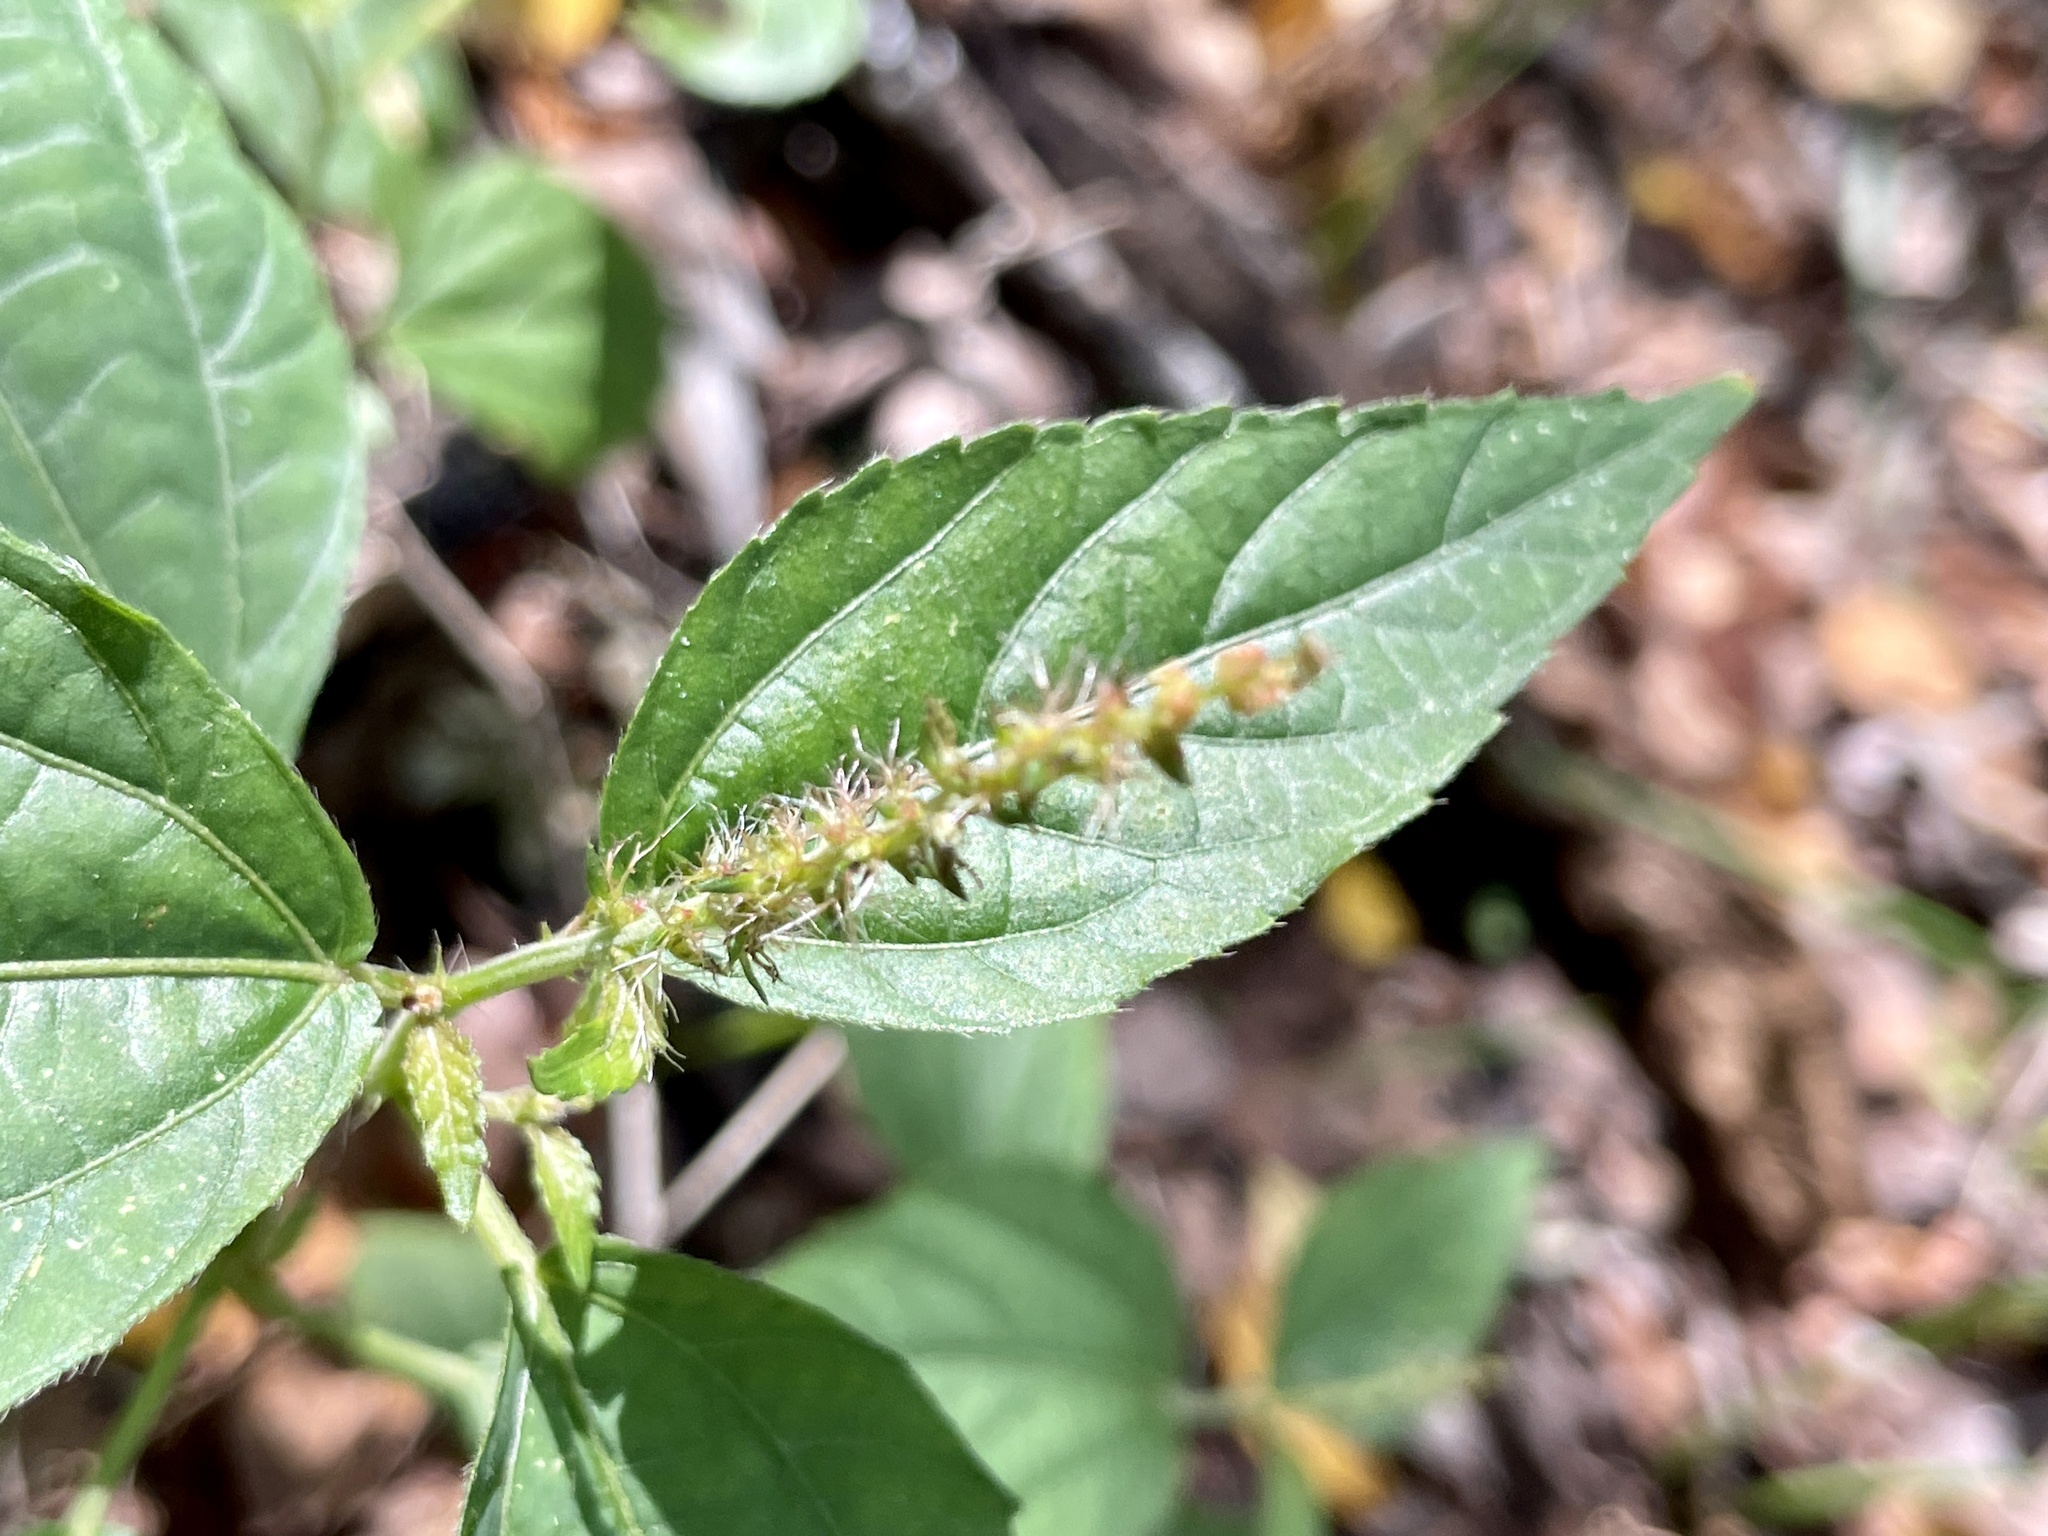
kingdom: Plantae
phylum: Tracheophyta
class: Magnoliopsida
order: Malpighiales
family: Euphorbiaceae
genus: Acalypha
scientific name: Acalypha phleoides
